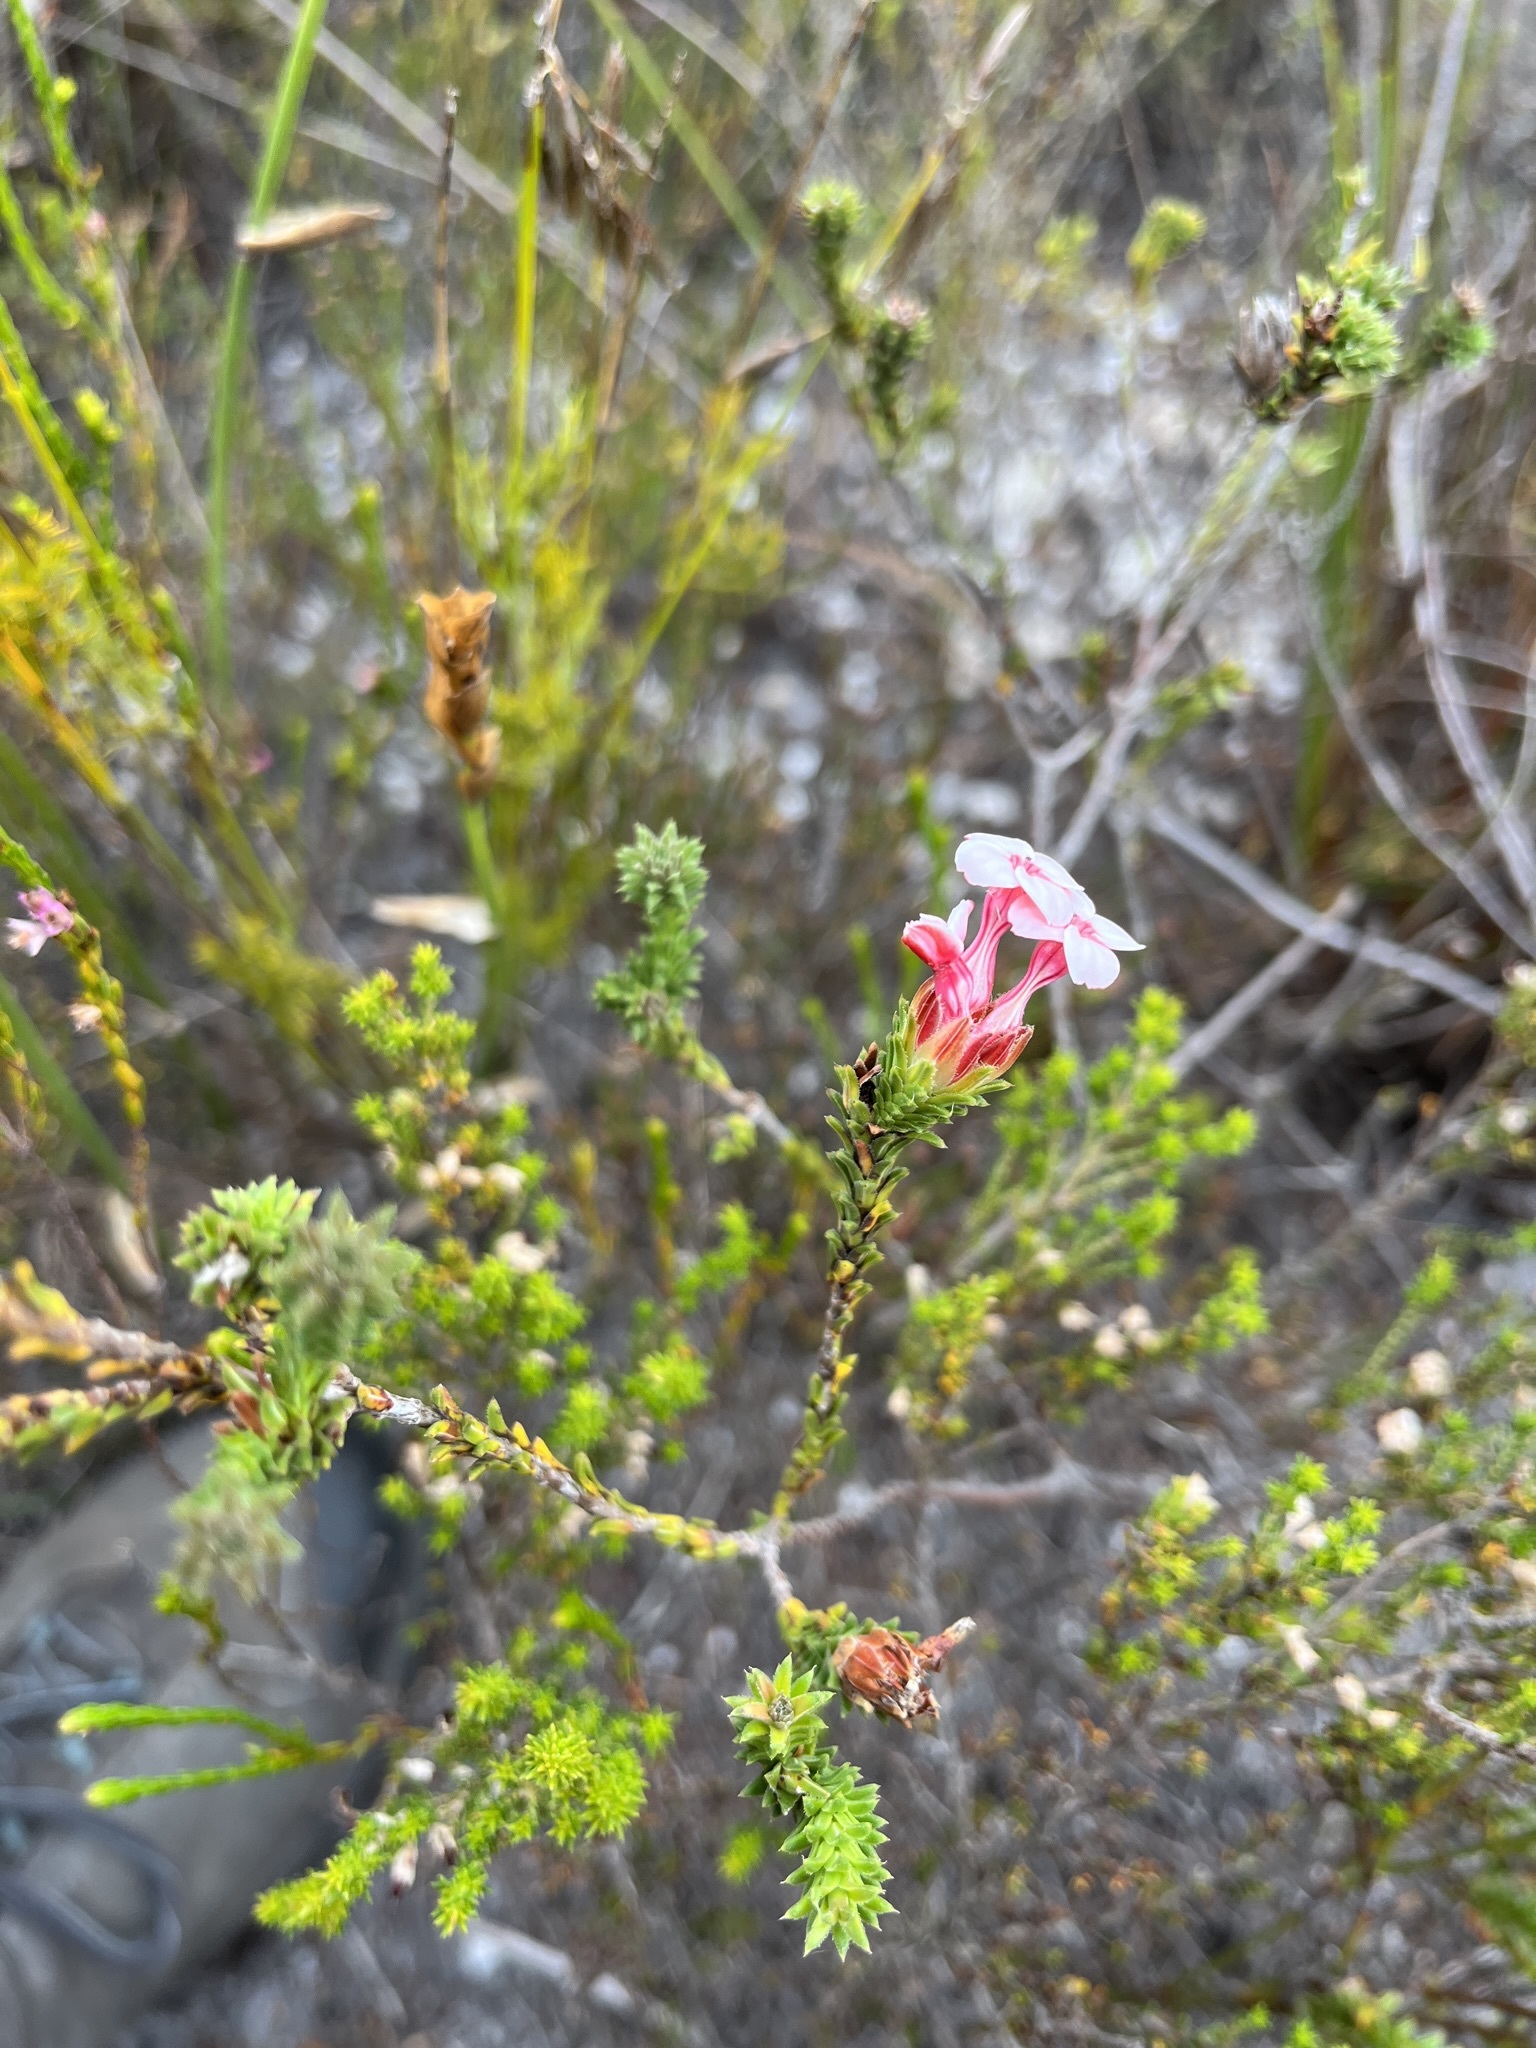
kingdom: Plantae
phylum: Tracheophyta
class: Magnoliopsida
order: Ericales
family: Ericaceae
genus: Erica
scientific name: Erica ampullacea
